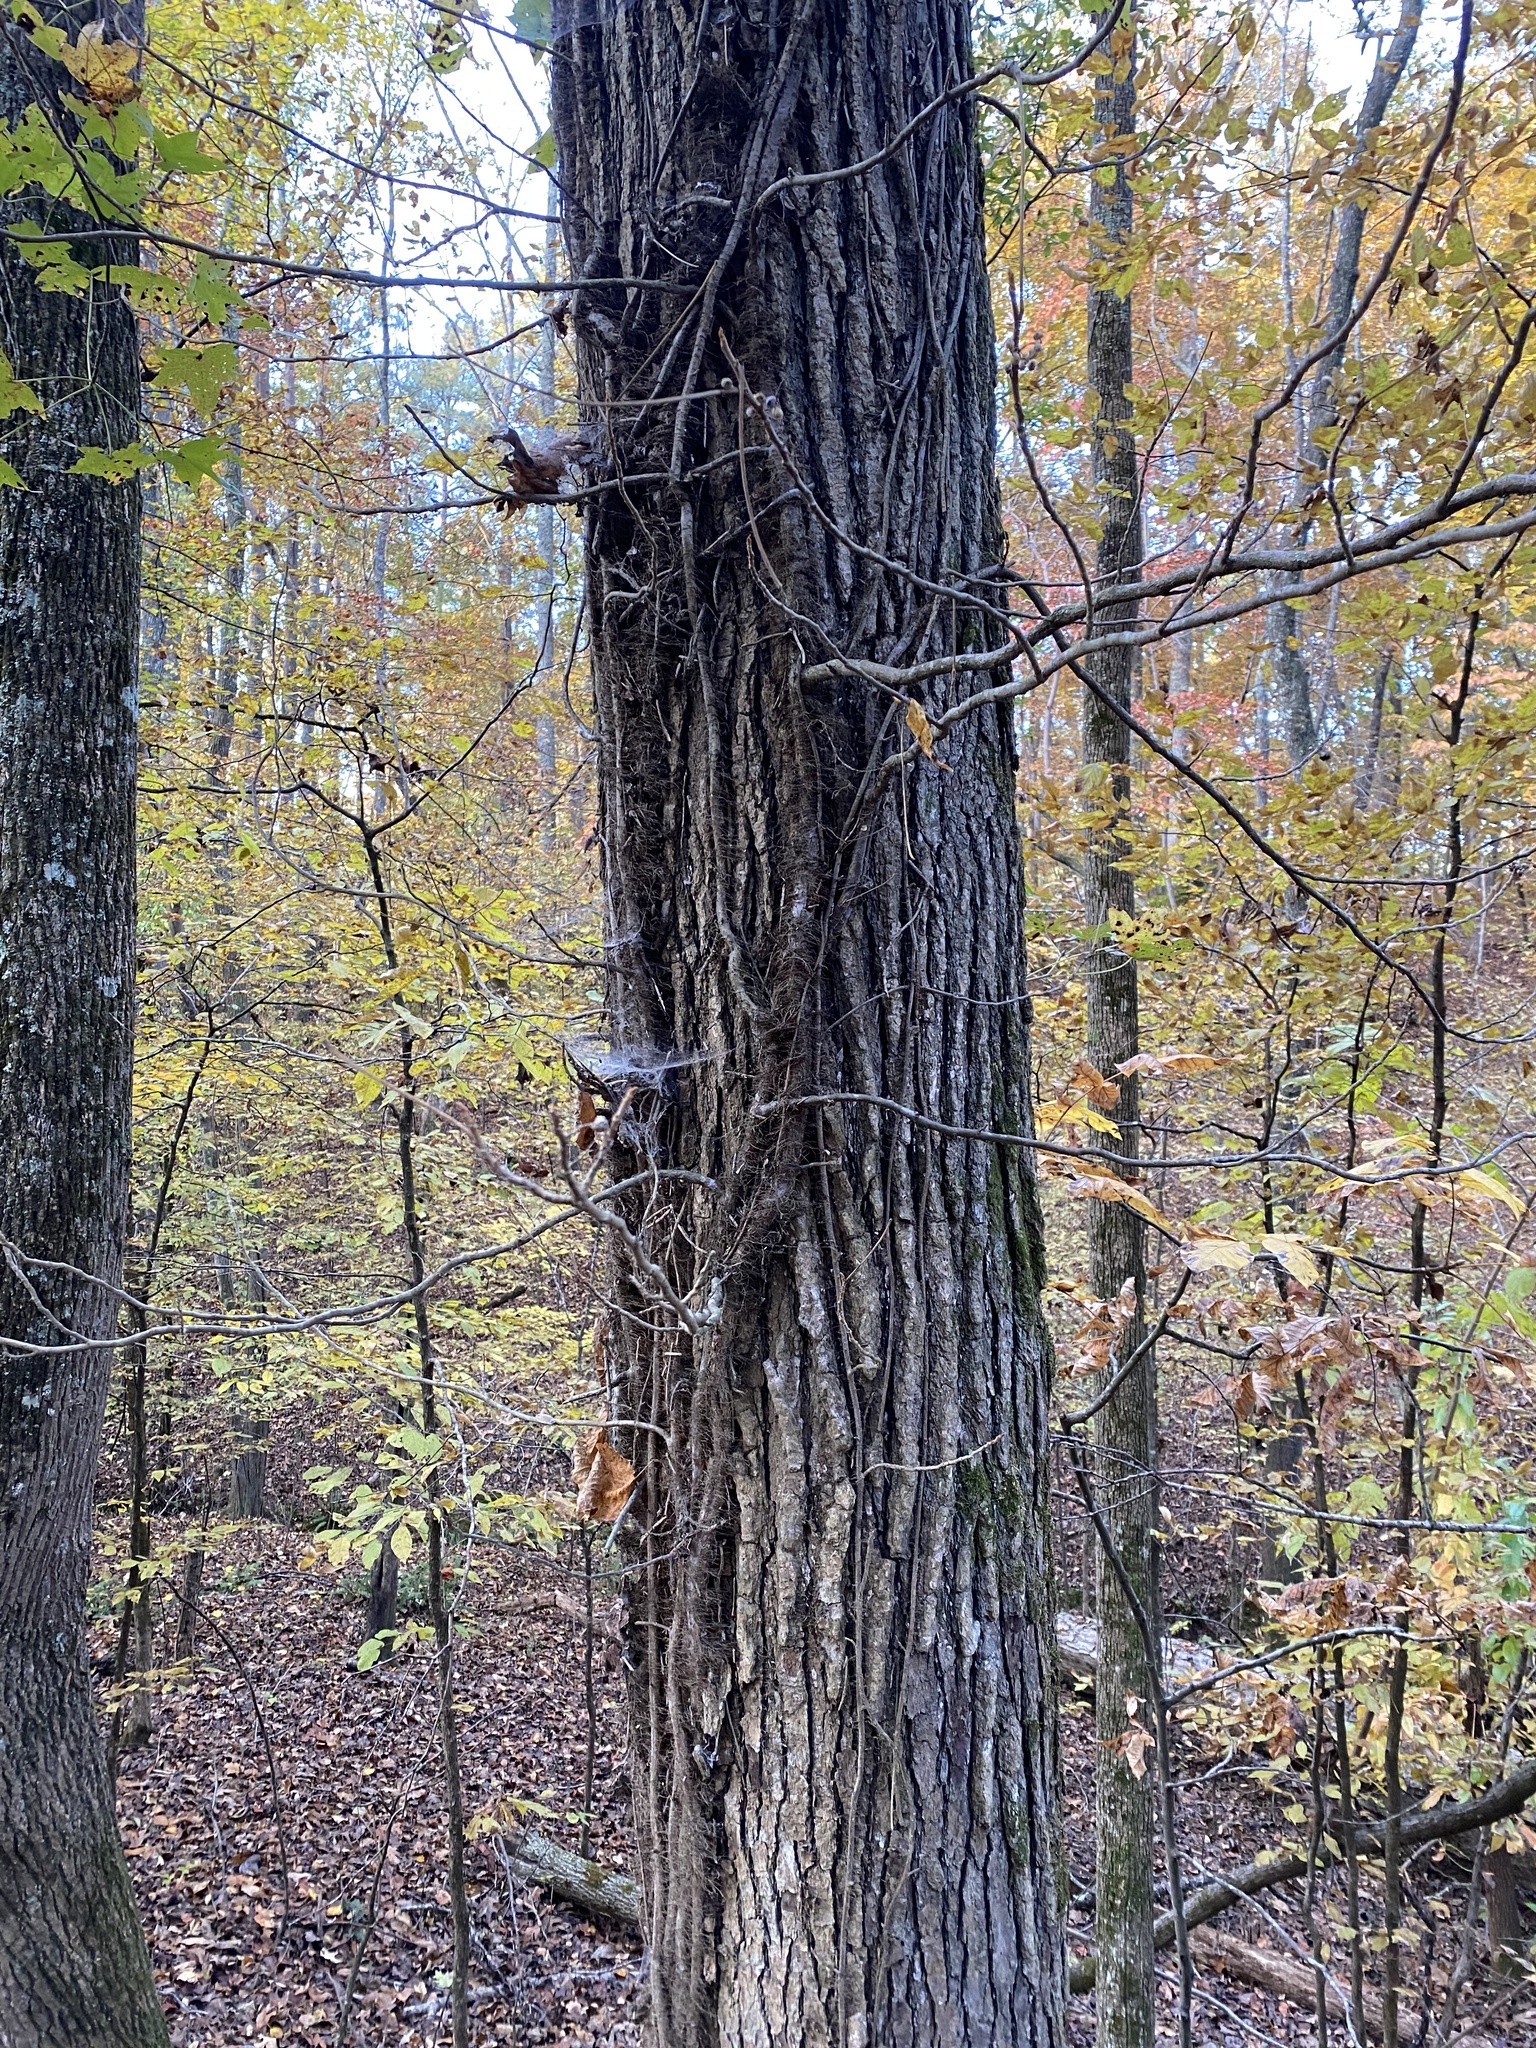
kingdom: Plantae
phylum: Tracheophyta
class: Magnoliopsida
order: Sapindales
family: Anacardiaceae
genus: Toxicodendron
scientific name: Toxicodendron radicans
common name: Poison ivy
